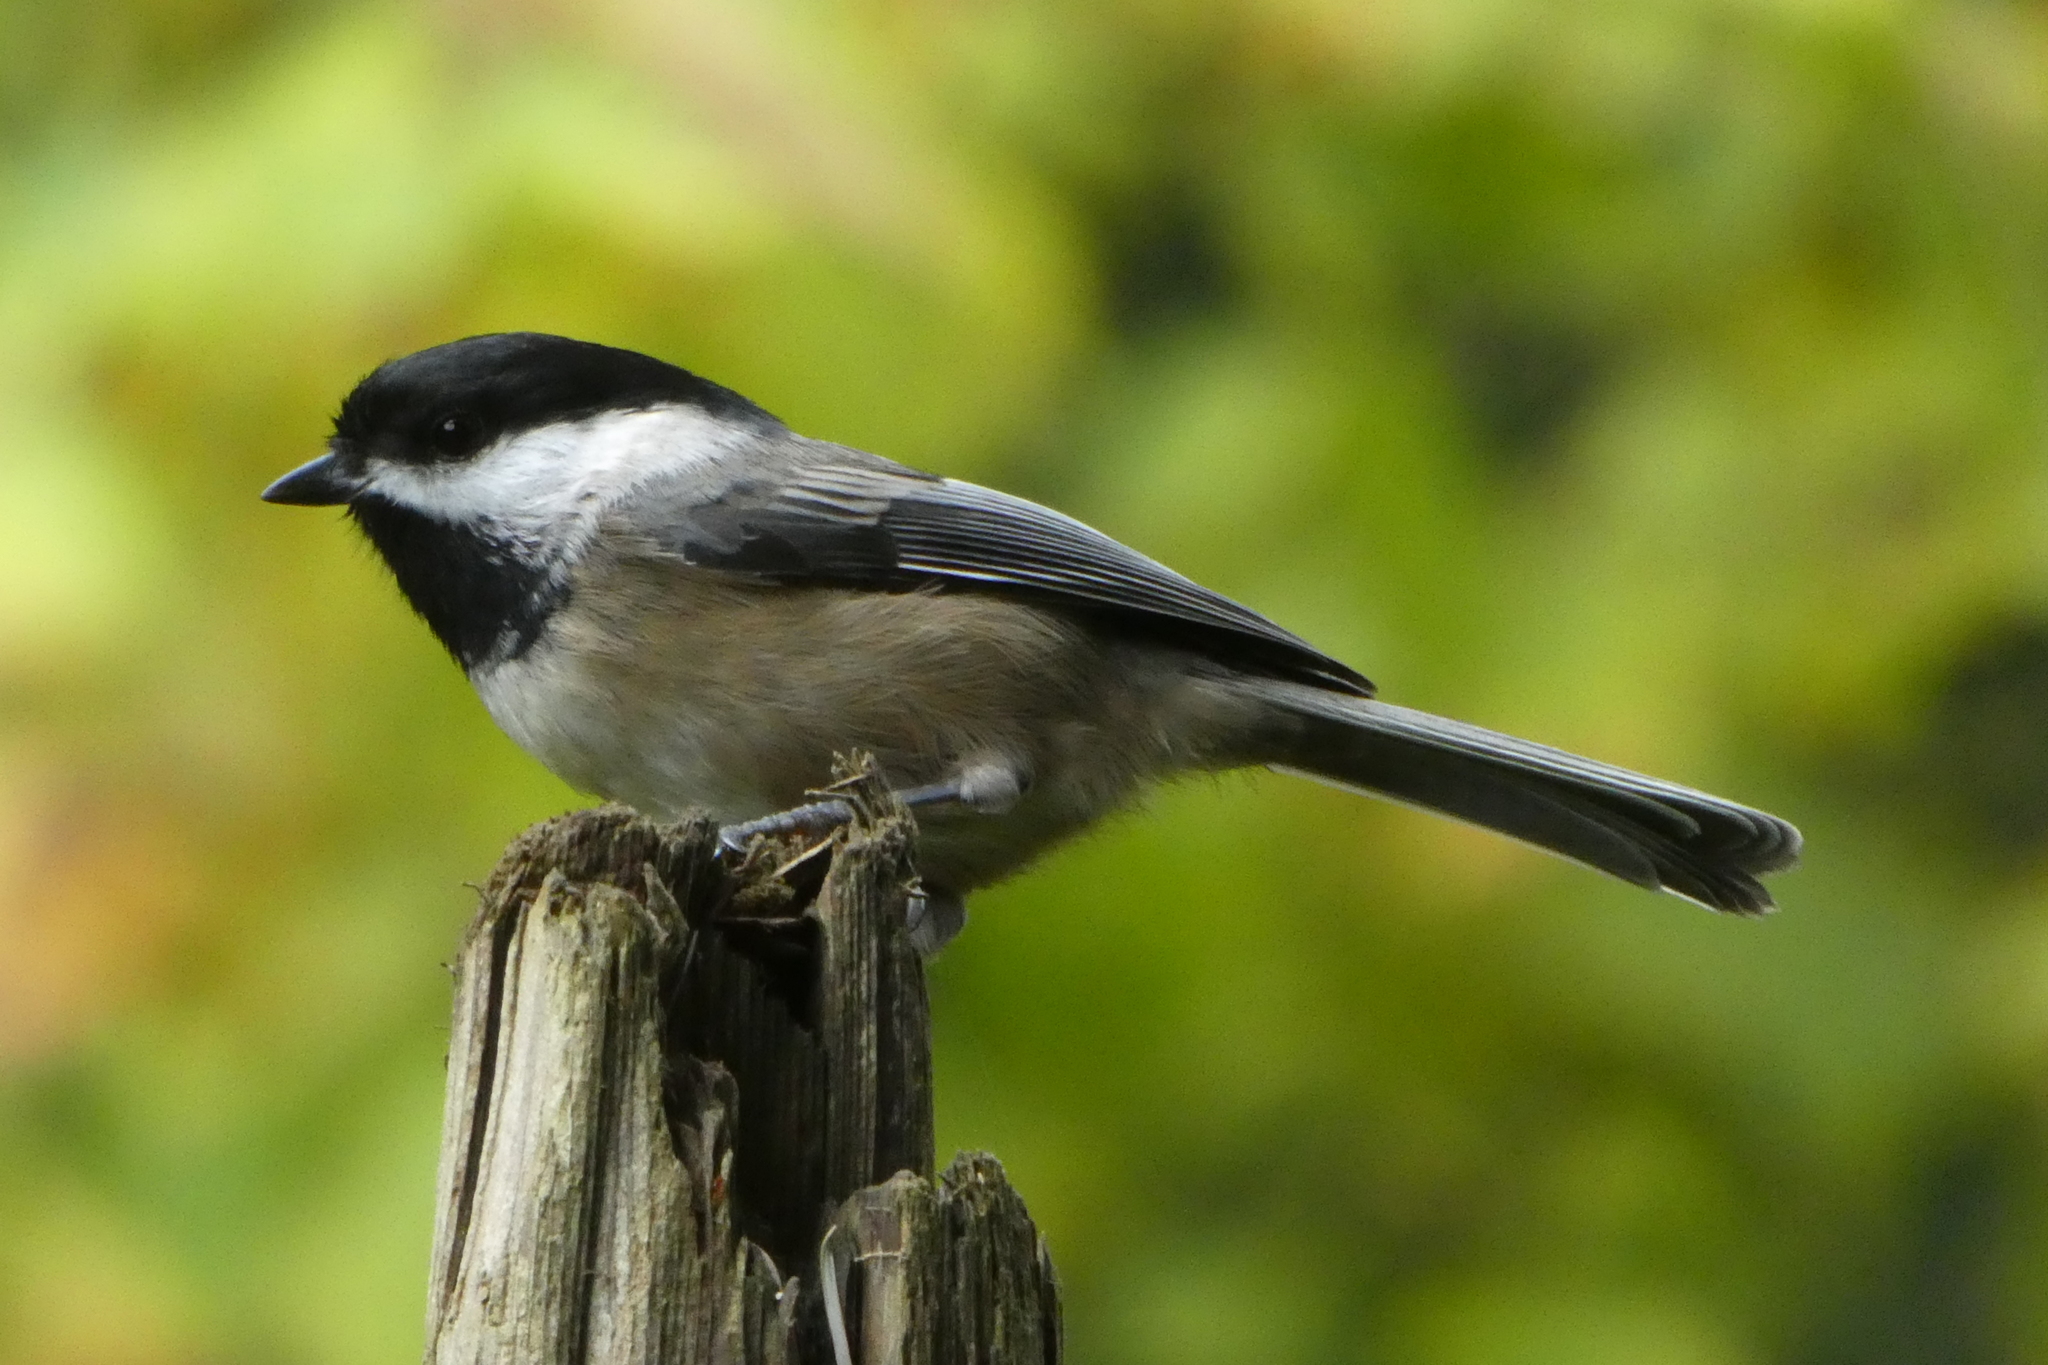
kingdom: Animalia
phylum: Chordata
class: Aves
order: Passeriformes
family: Paridae
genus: Poecile
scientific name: Poecile atricapillus
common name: Black-capped chickadee
